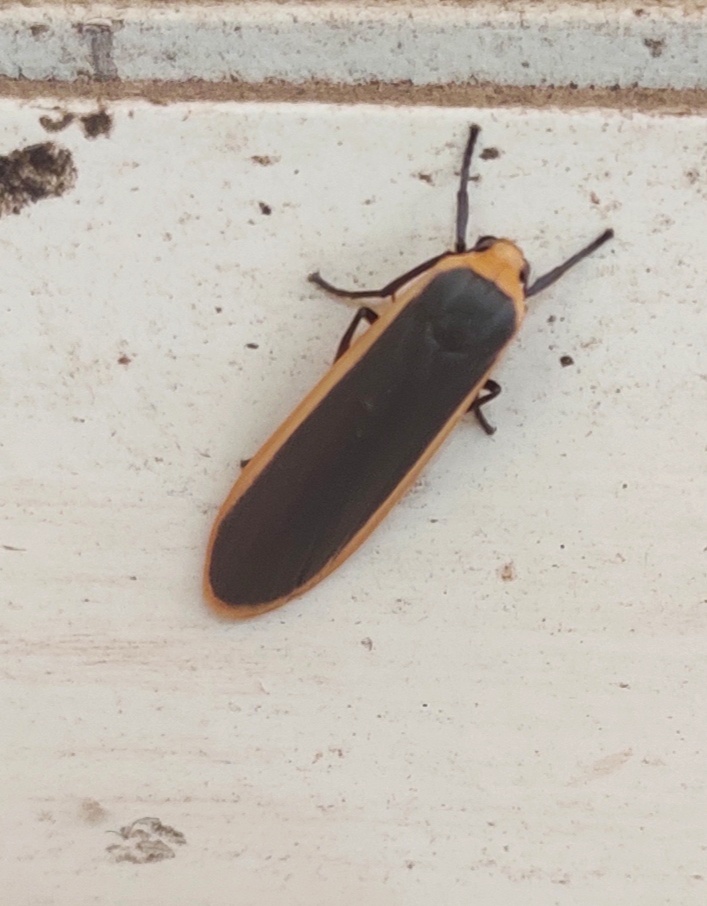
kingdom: Animalia
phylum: Arthropoda
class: Insecta
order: Lepidoptera
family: Erebidae
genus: Brunia
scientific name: Brunia antica
